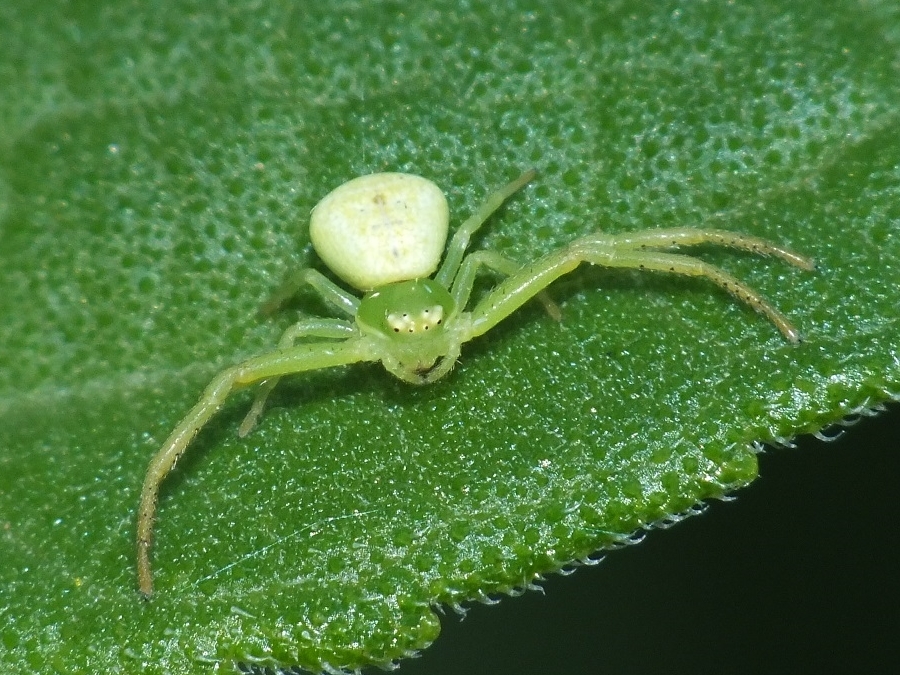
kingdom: Animalia
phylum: Arthropoda
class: Arachnida
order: Araneae
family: Thomisidae
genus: Ebrechtella
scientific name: Ebrechtella tricuspidata
